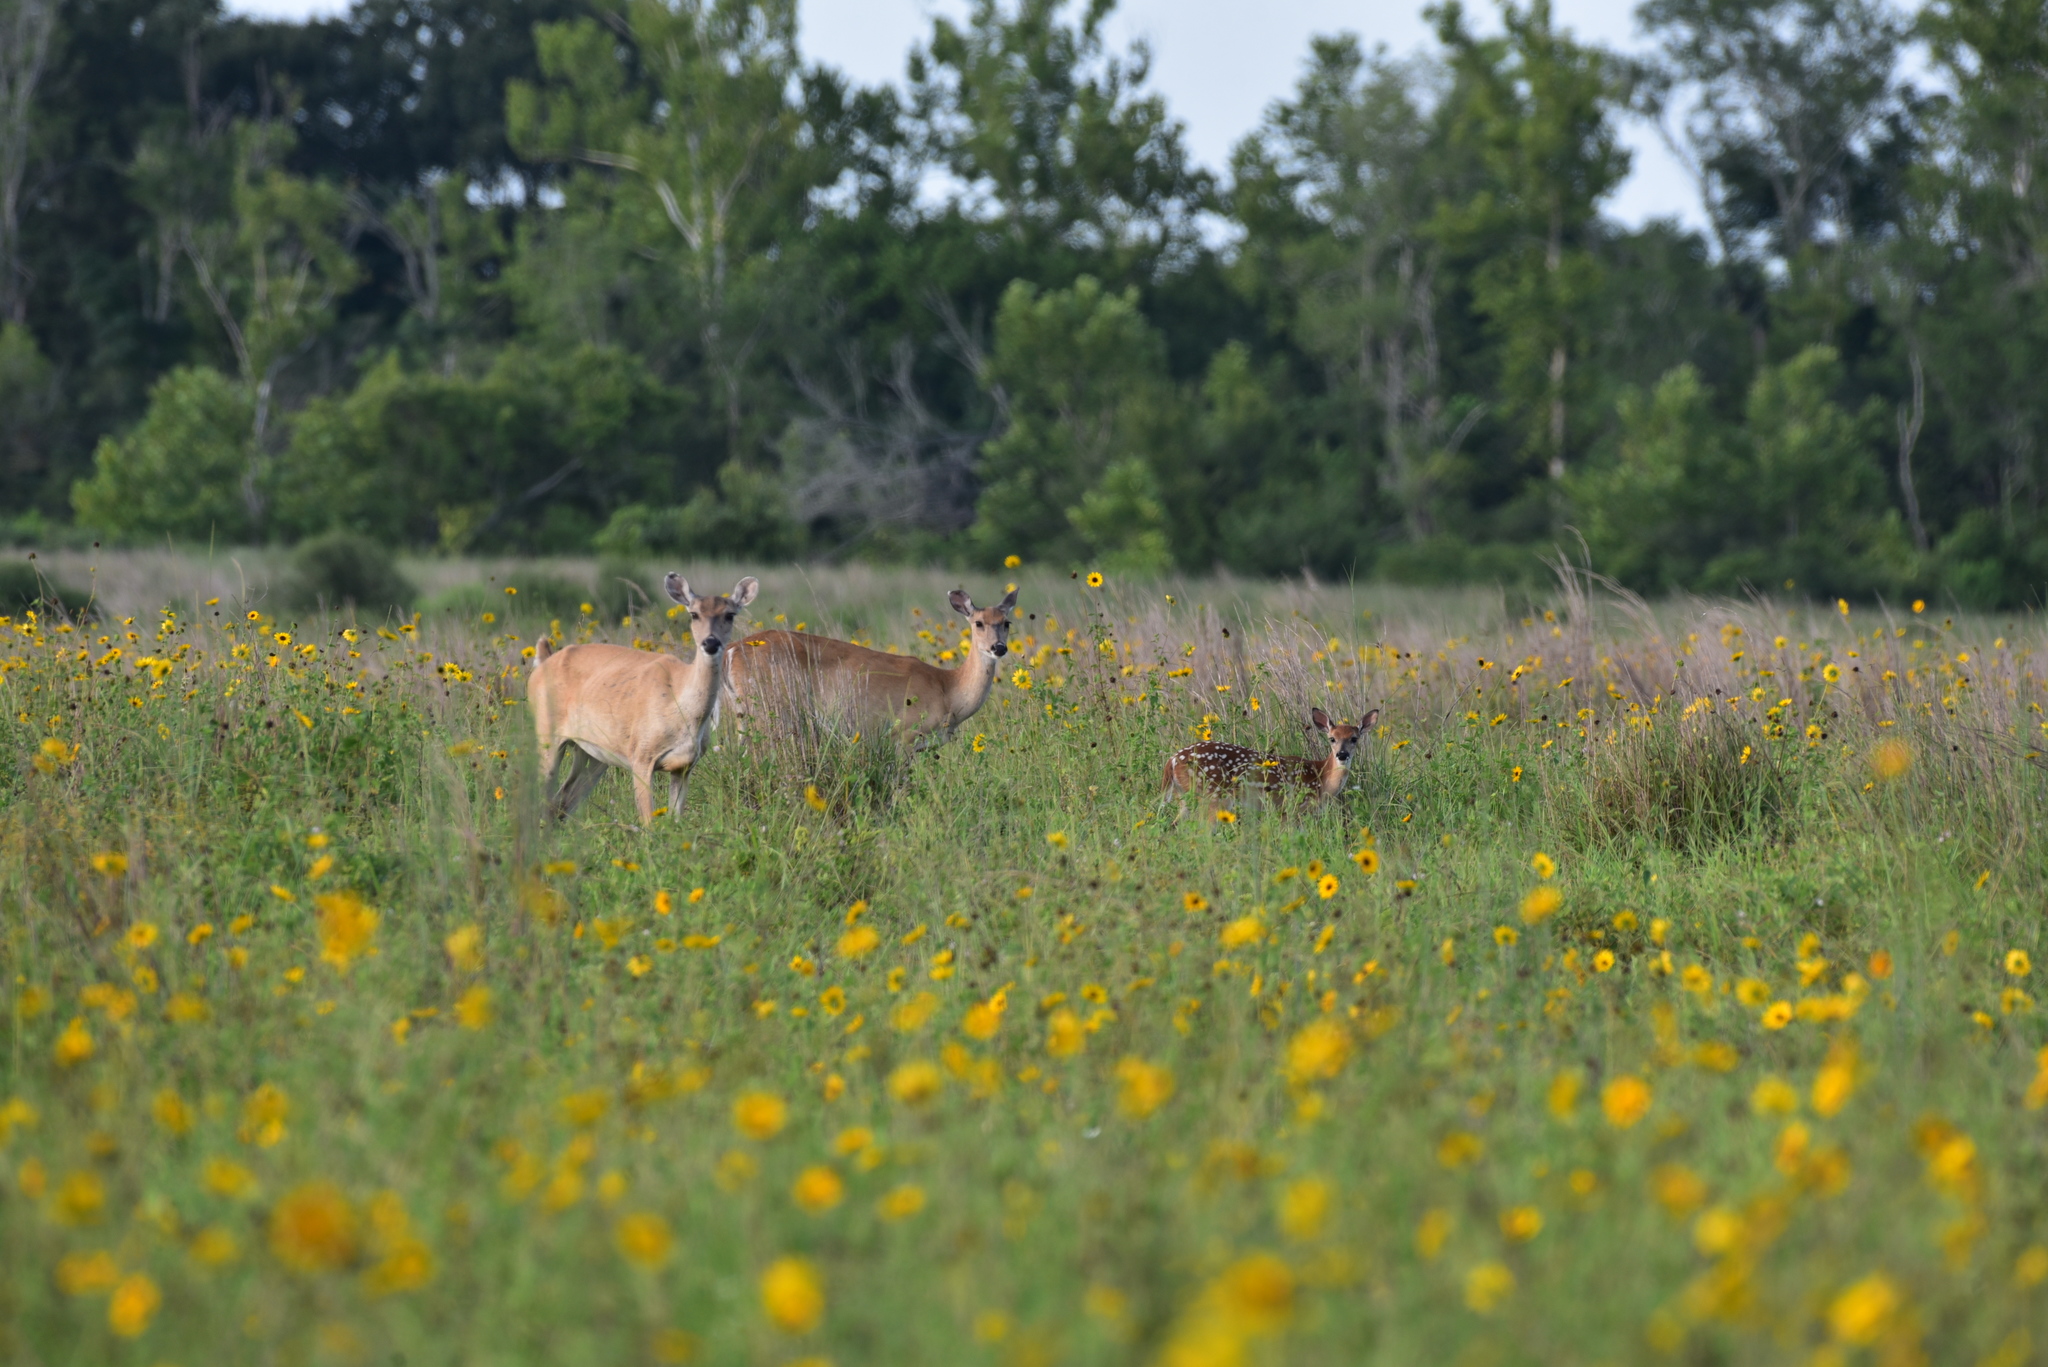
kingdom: Animalia
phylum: Chordata
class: Mammalia
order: Artiodactyla
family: Cervidae
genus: Odocoileus
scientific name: Odocoileus virginianus
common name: White-tailed deer
